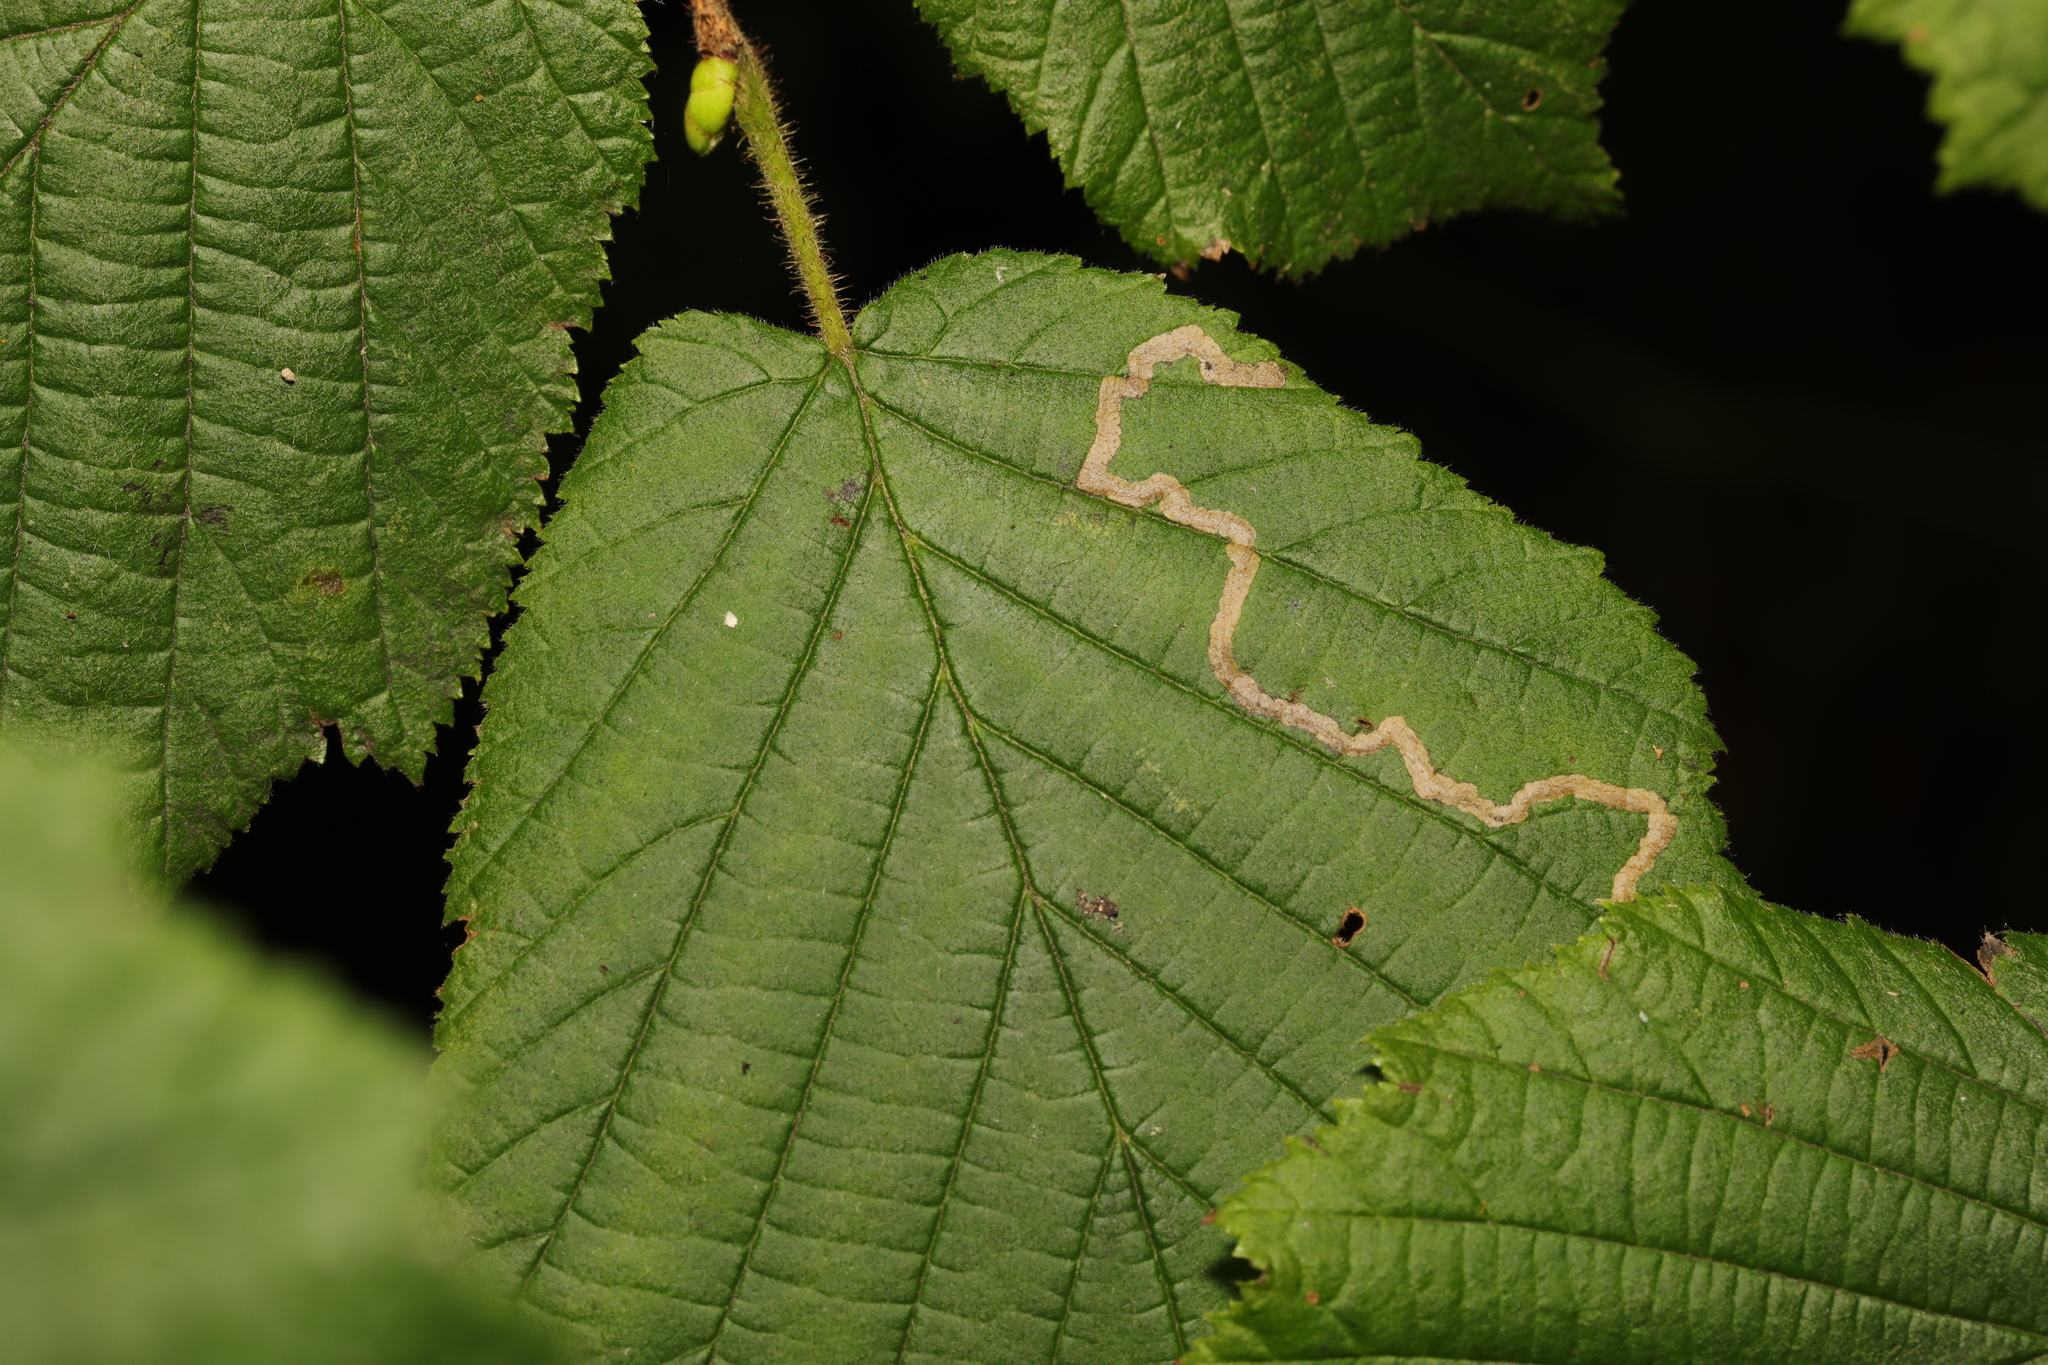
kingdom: Animalia
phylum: Arthropoda
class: Insecta
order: Lepidoptera
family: Nepticulidae
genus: Stigmella
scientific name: Stigmella microtheriella
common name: Nut-tree pigmy
